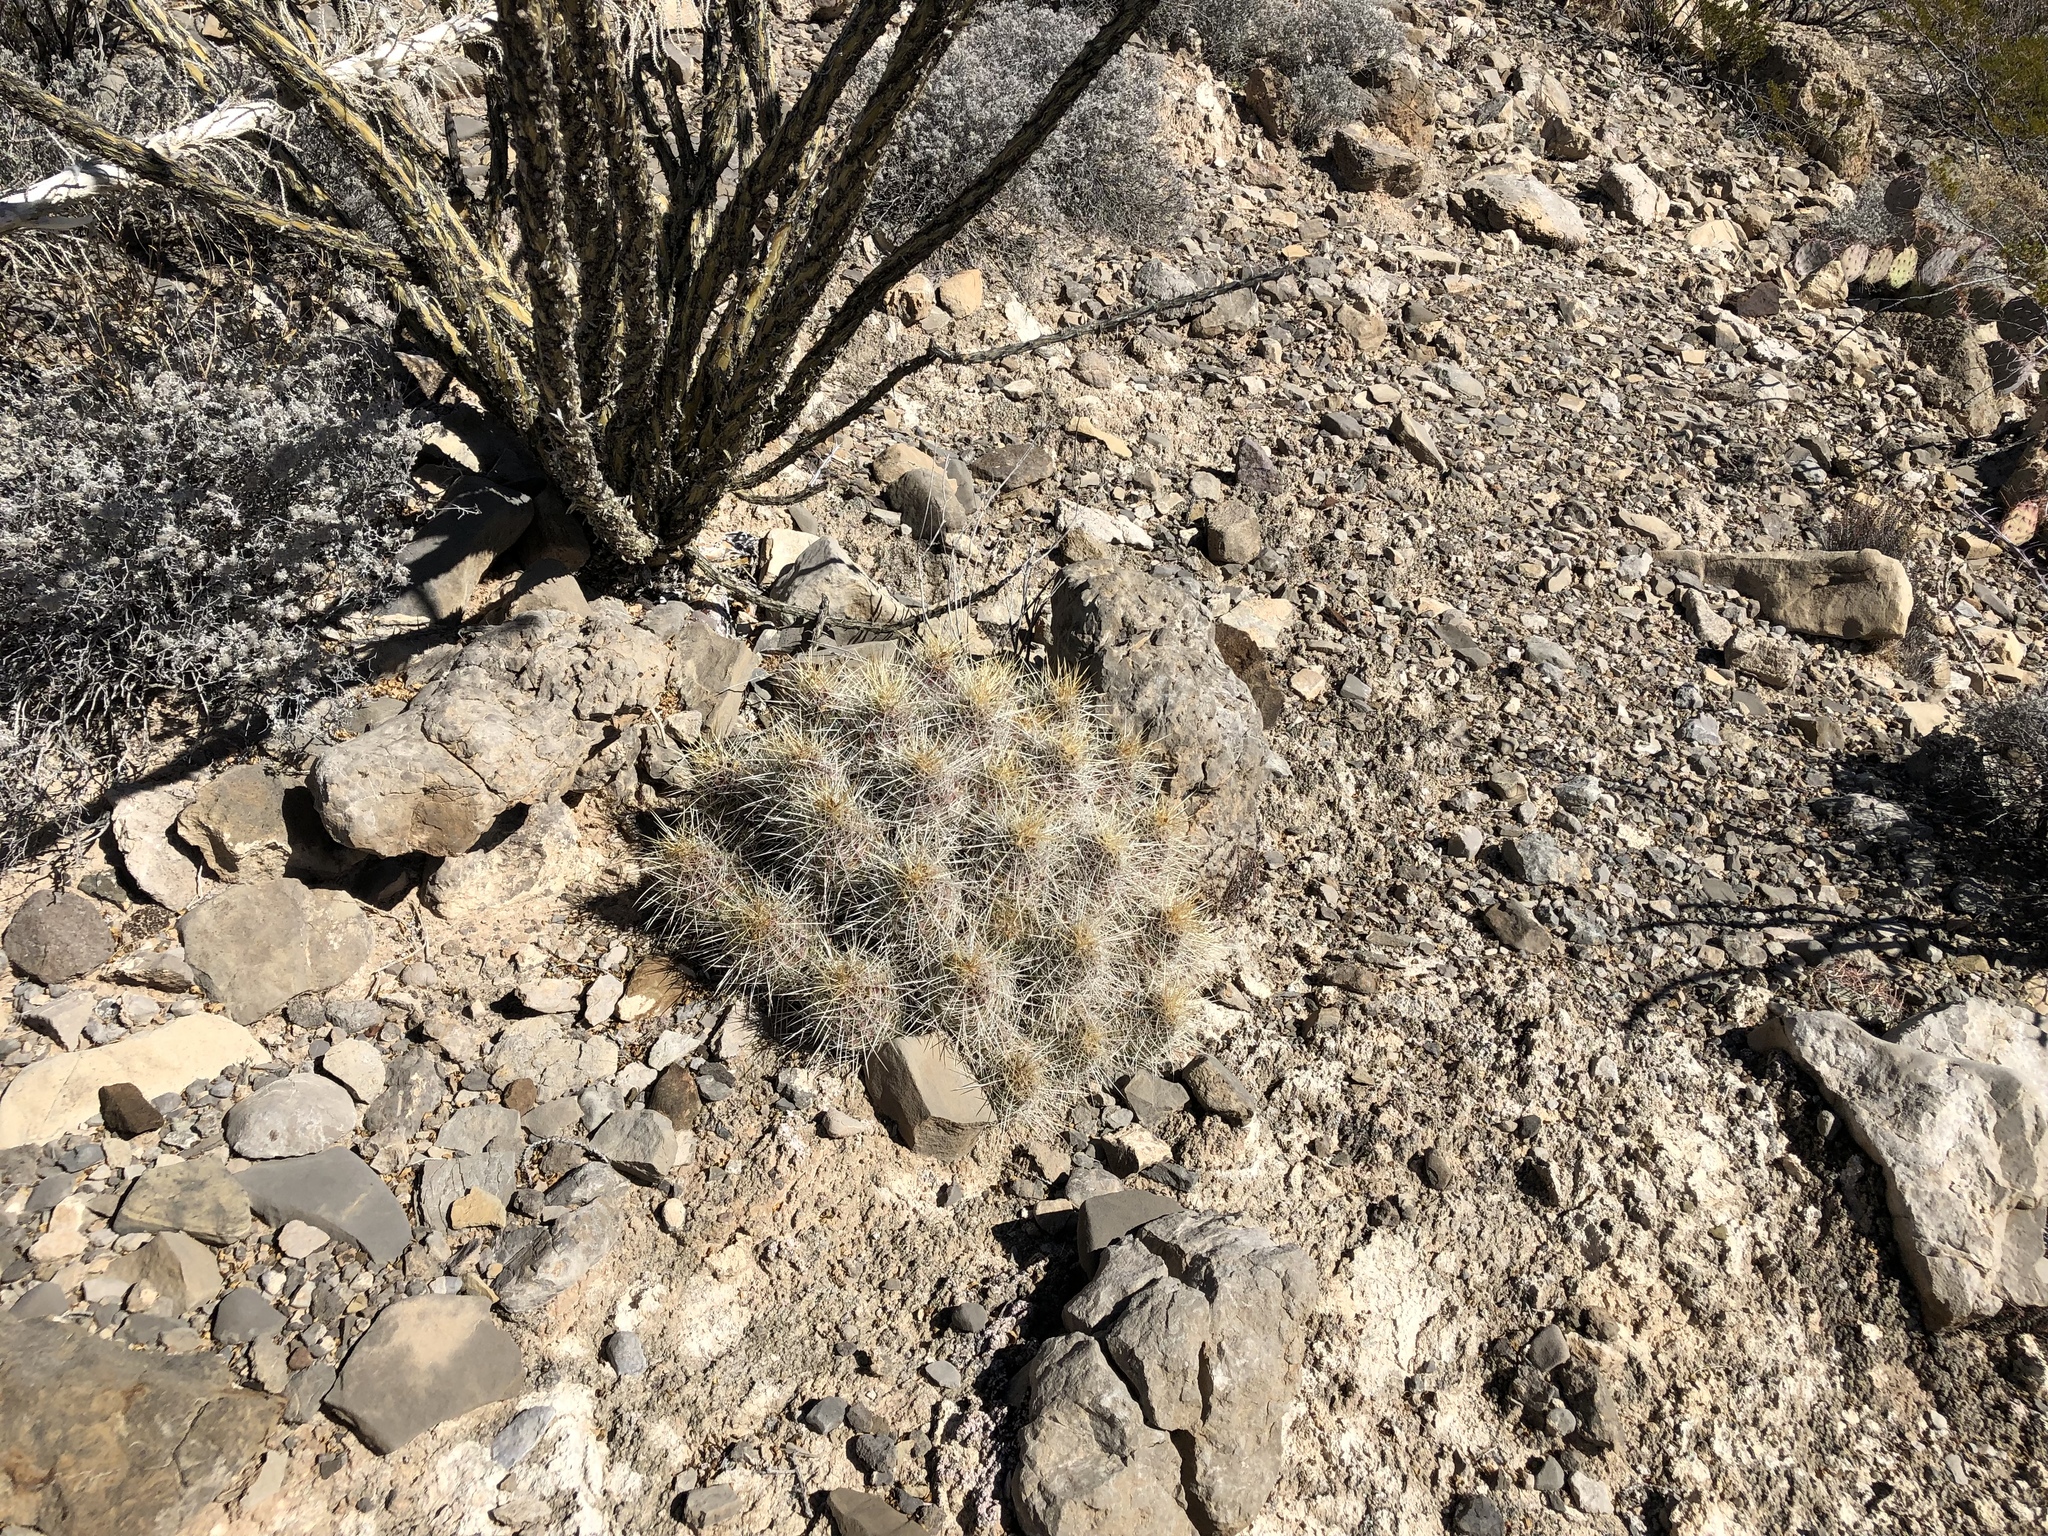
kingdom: Plantae
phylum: Tracheophyta
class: Magnoliopsida
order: Caryophyllales
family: Cactaceae
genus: Echinocereus
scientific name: Echinocereus stramineus
